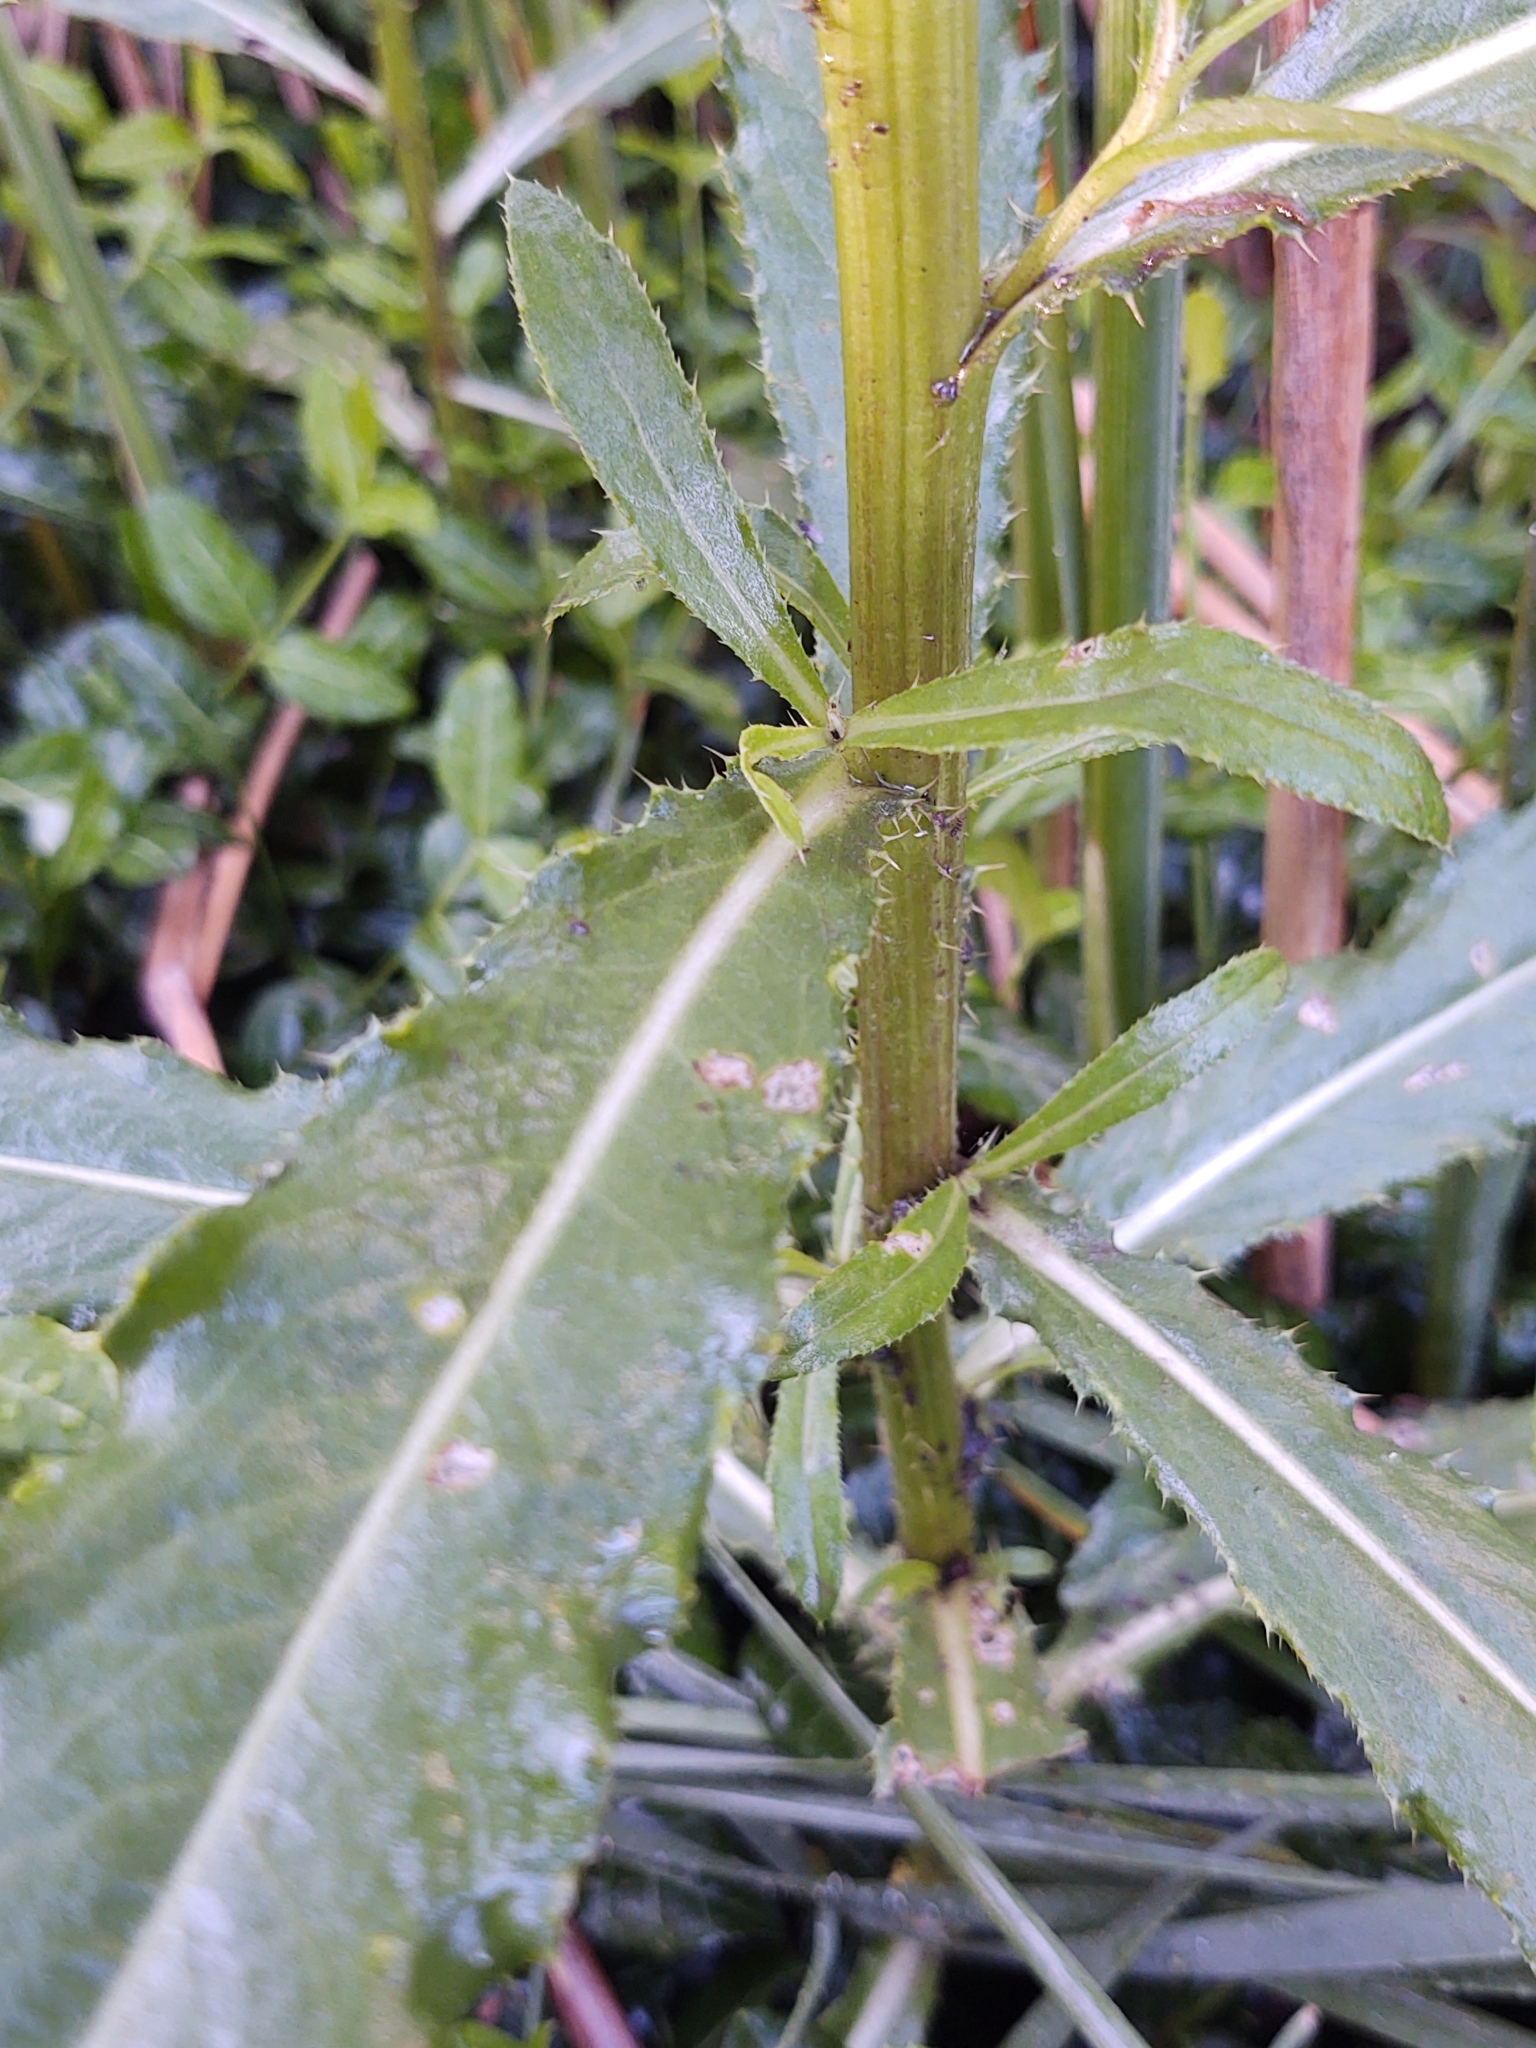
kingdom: Plantae
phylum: Tracheophyta
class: Magnoliopsida
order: Asterales
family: Asteraceae
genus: Cirsium
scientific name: Cirsium arvense
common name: Creeping thistle
